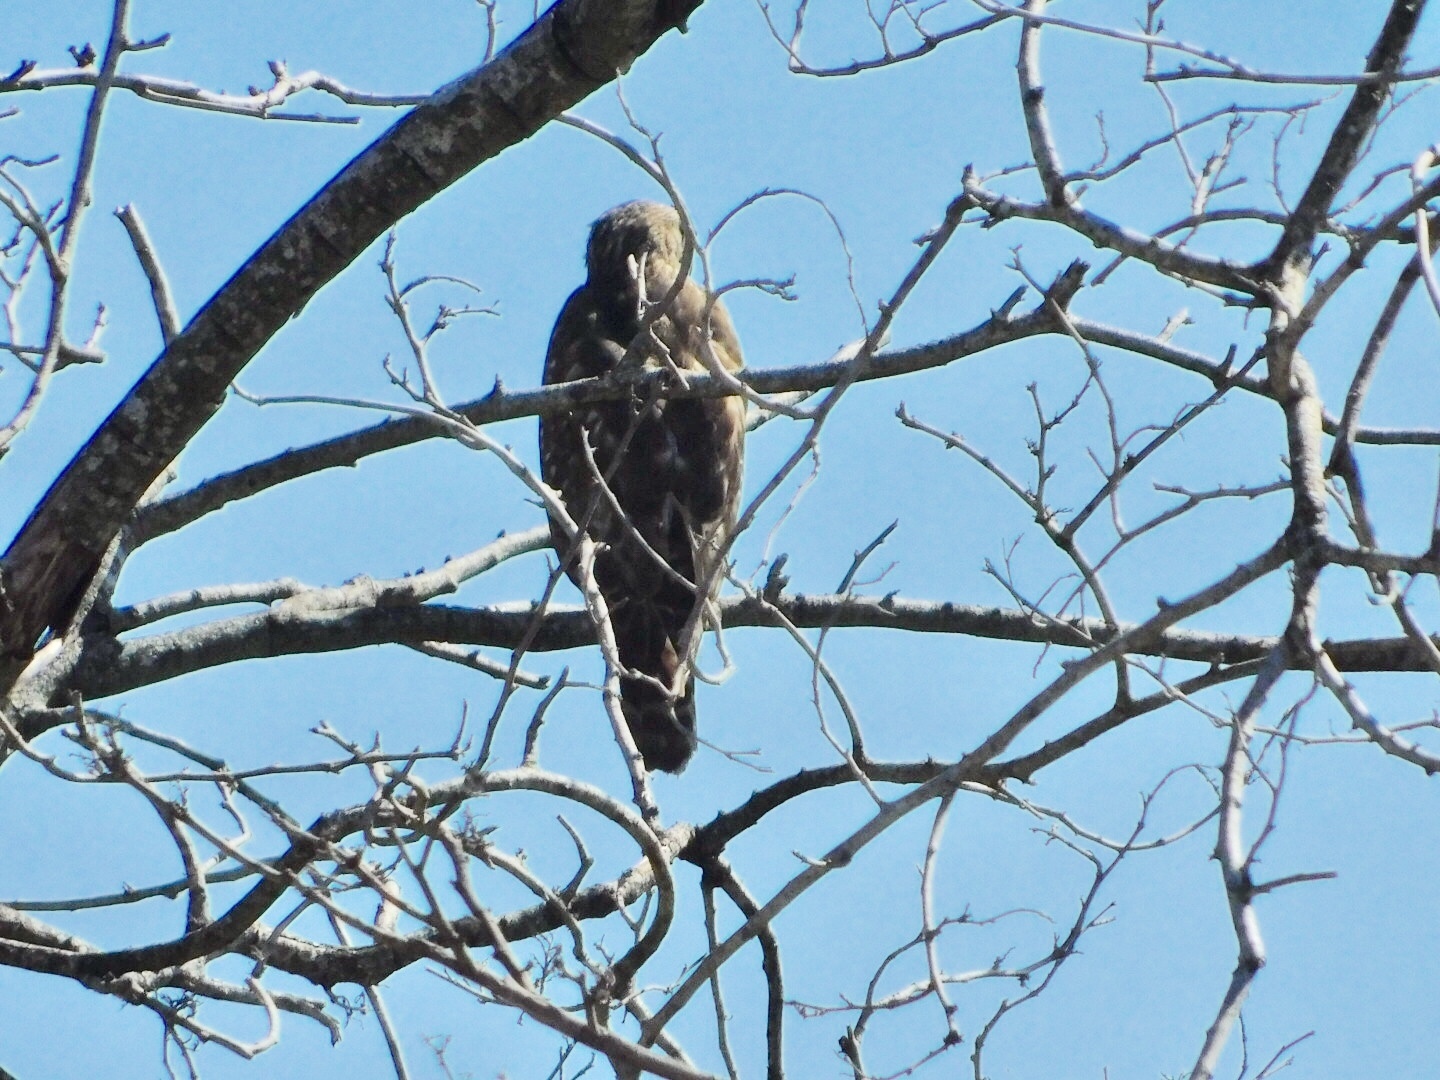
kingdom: Animalia
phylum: Chordata
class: Aves
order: Accipitriformes
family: Accipitridae
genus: Buteo
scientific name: Buteo lineatus
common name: Red-shouldered hawk
